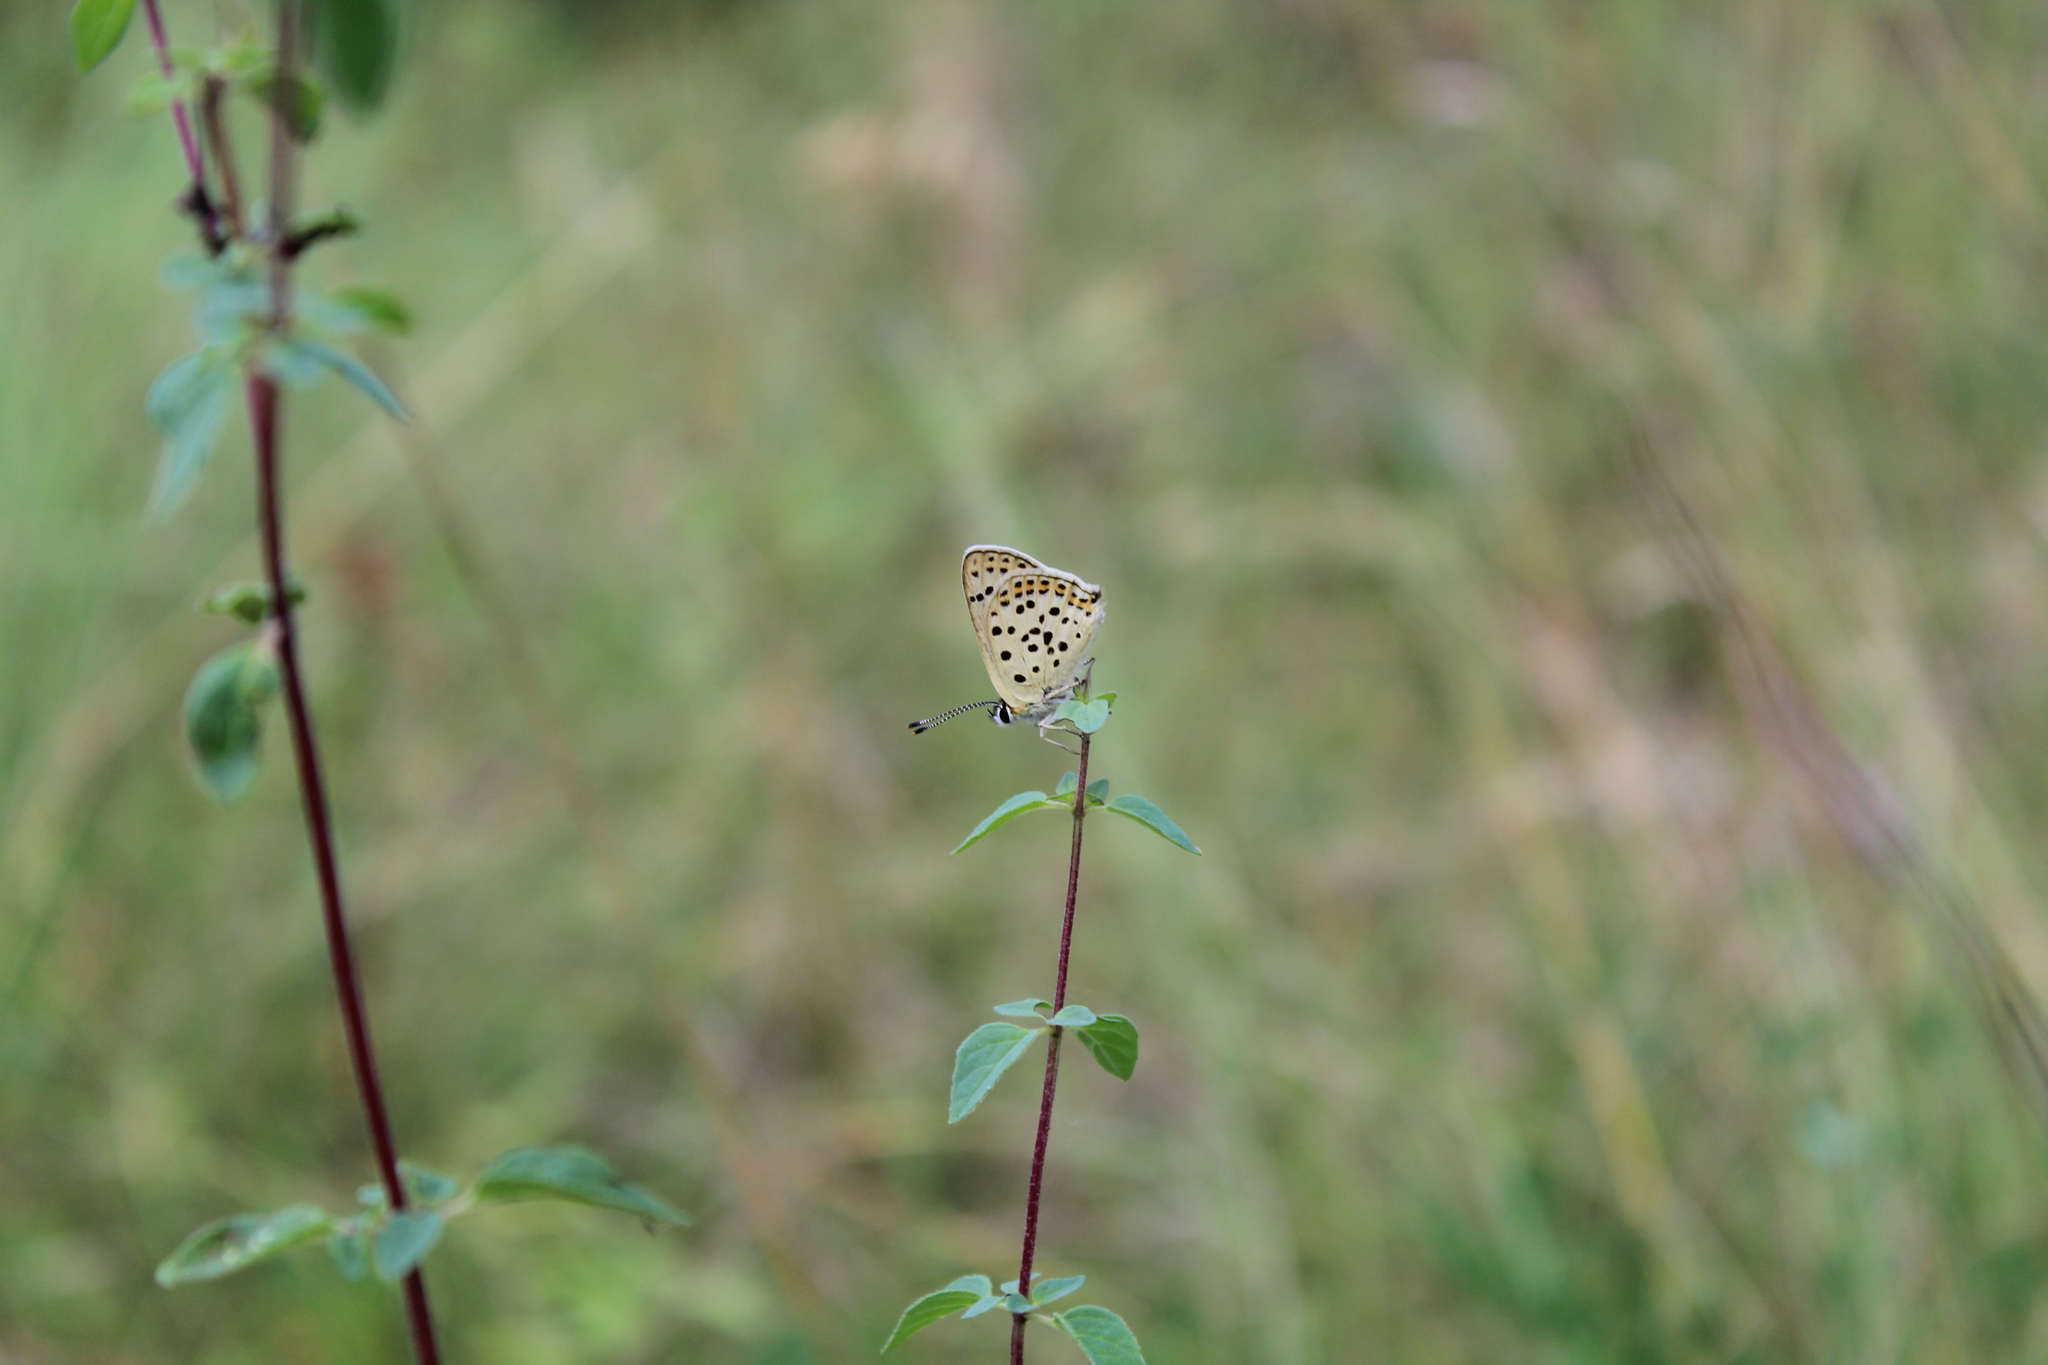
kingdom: Animalia
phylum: Arthropoda
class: Insecta
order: Lepidoptera
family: Lycaenidae
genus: Loweia
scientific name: Loweia tityrus
